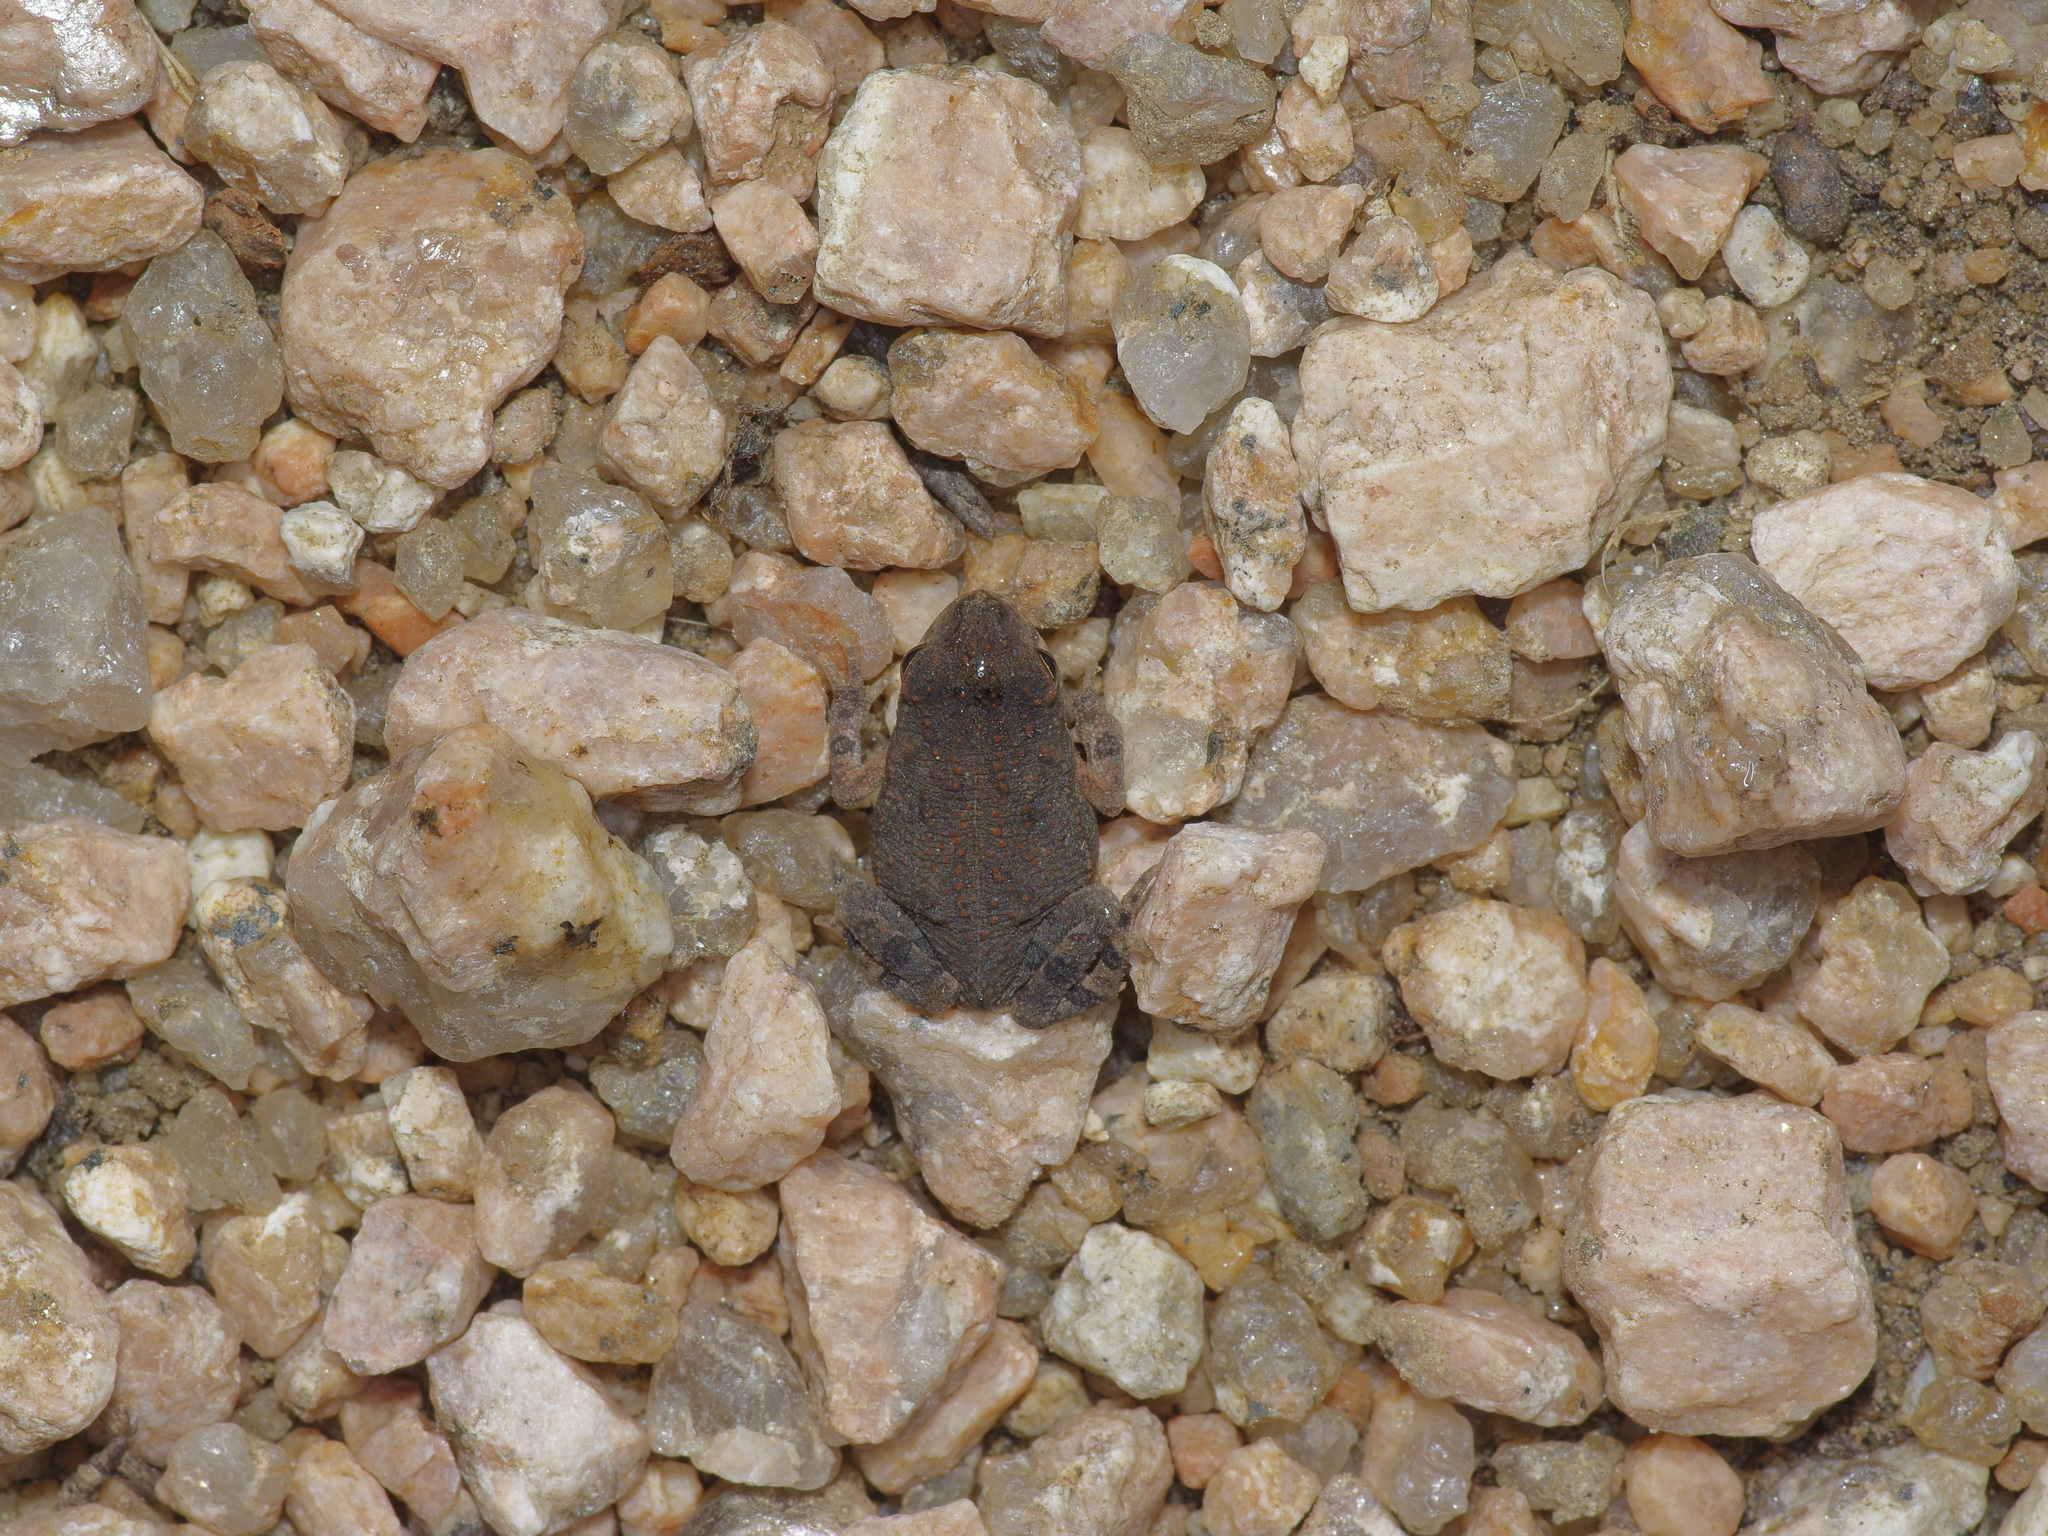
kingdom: Animalia
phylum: Chordata
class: Amphibia
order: Anura
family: Bufonidae
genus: Incilius
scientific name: Incilius nebulifer
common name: Gulf coast toad
